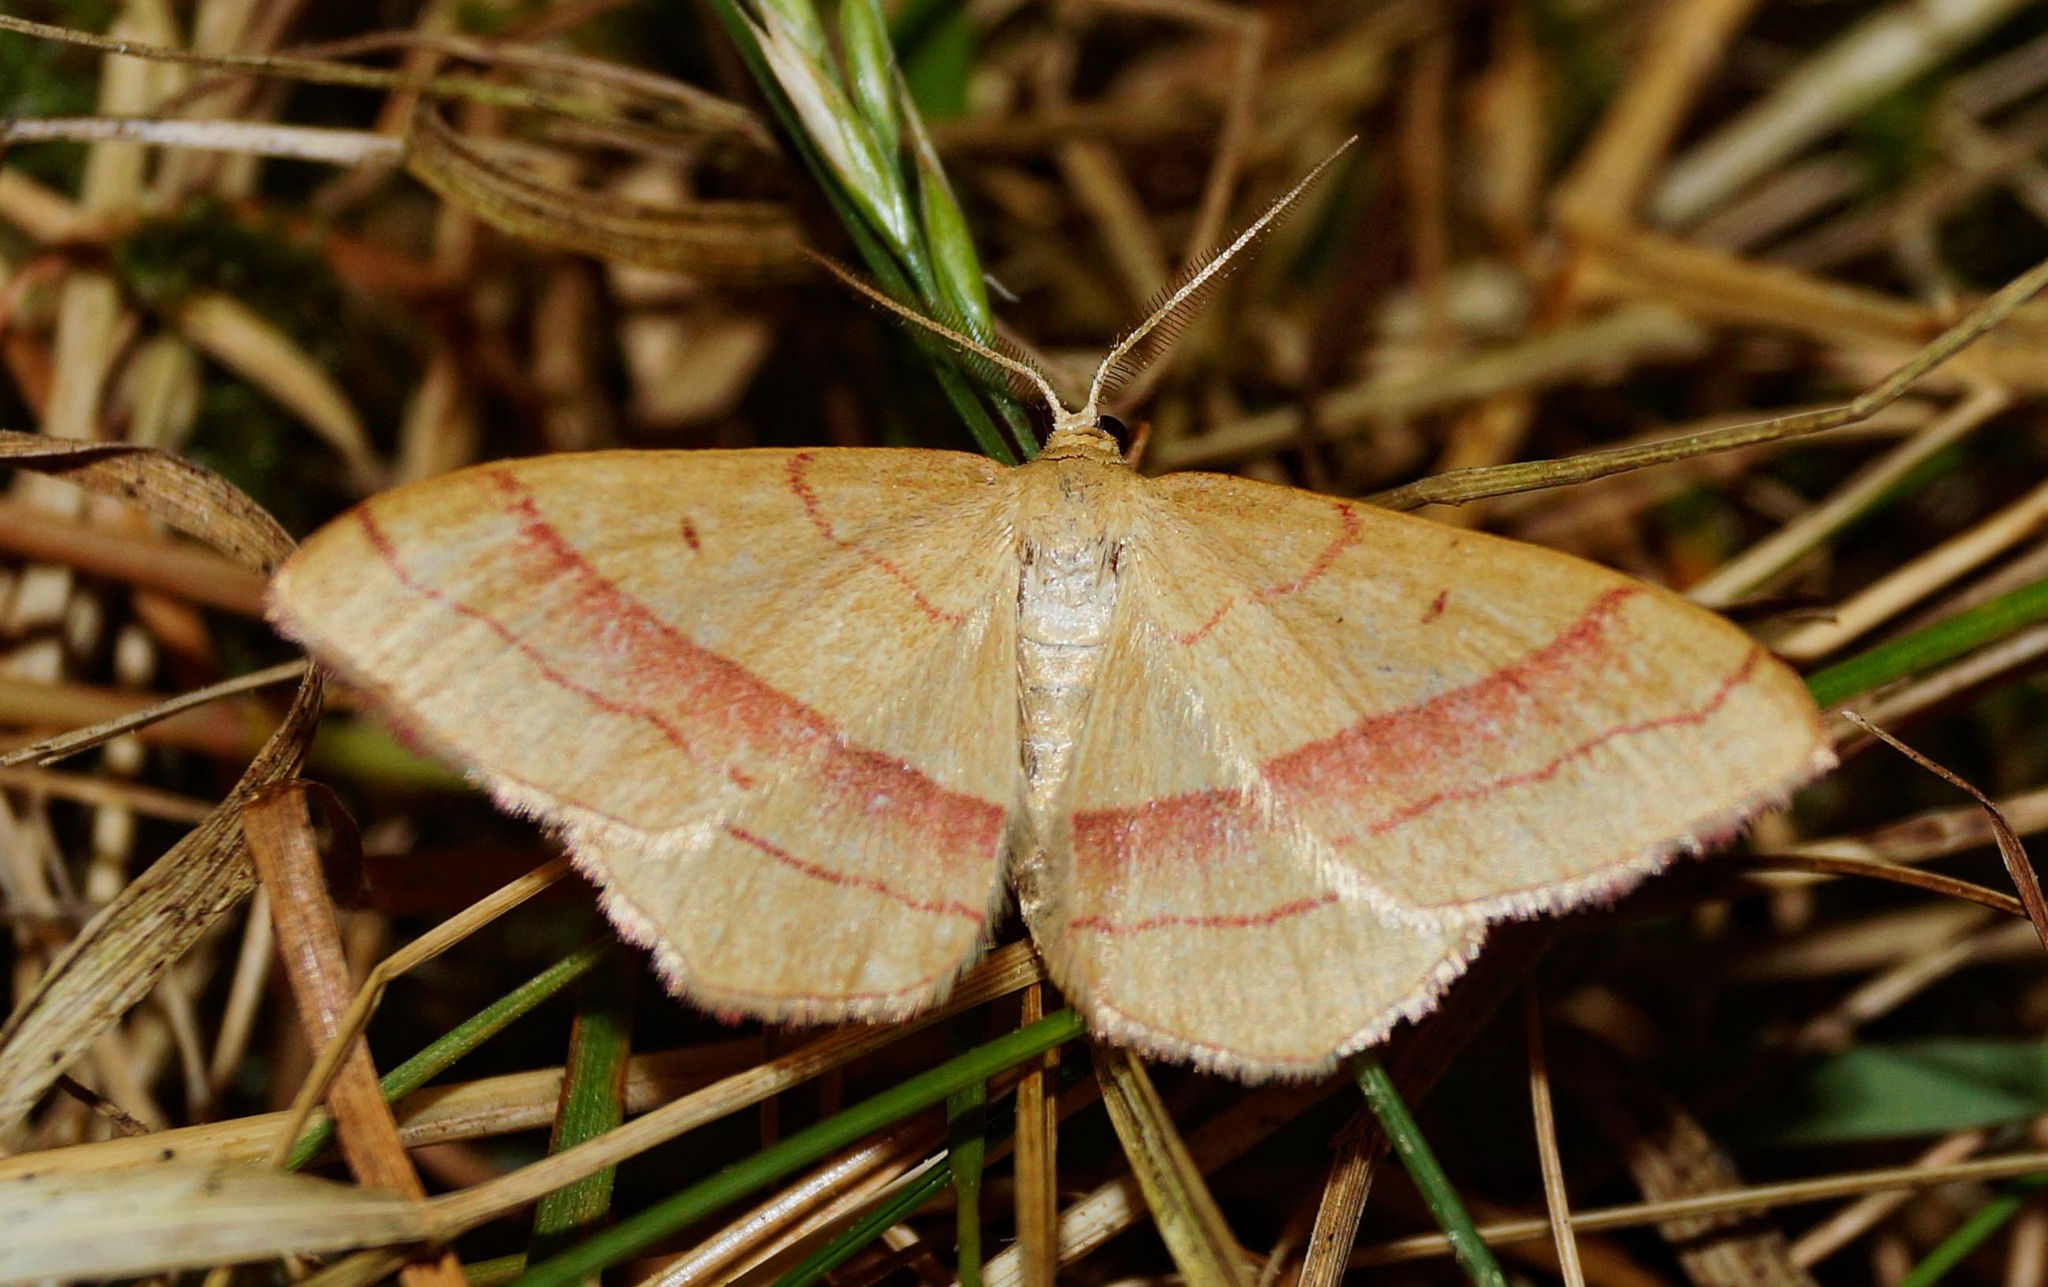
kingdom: Animalia
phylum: Arthropoda
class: Insecta
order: Lepidoptera
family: Geometridae
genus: Rhodostrophia
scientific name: Rhodostrophia vibicaria
